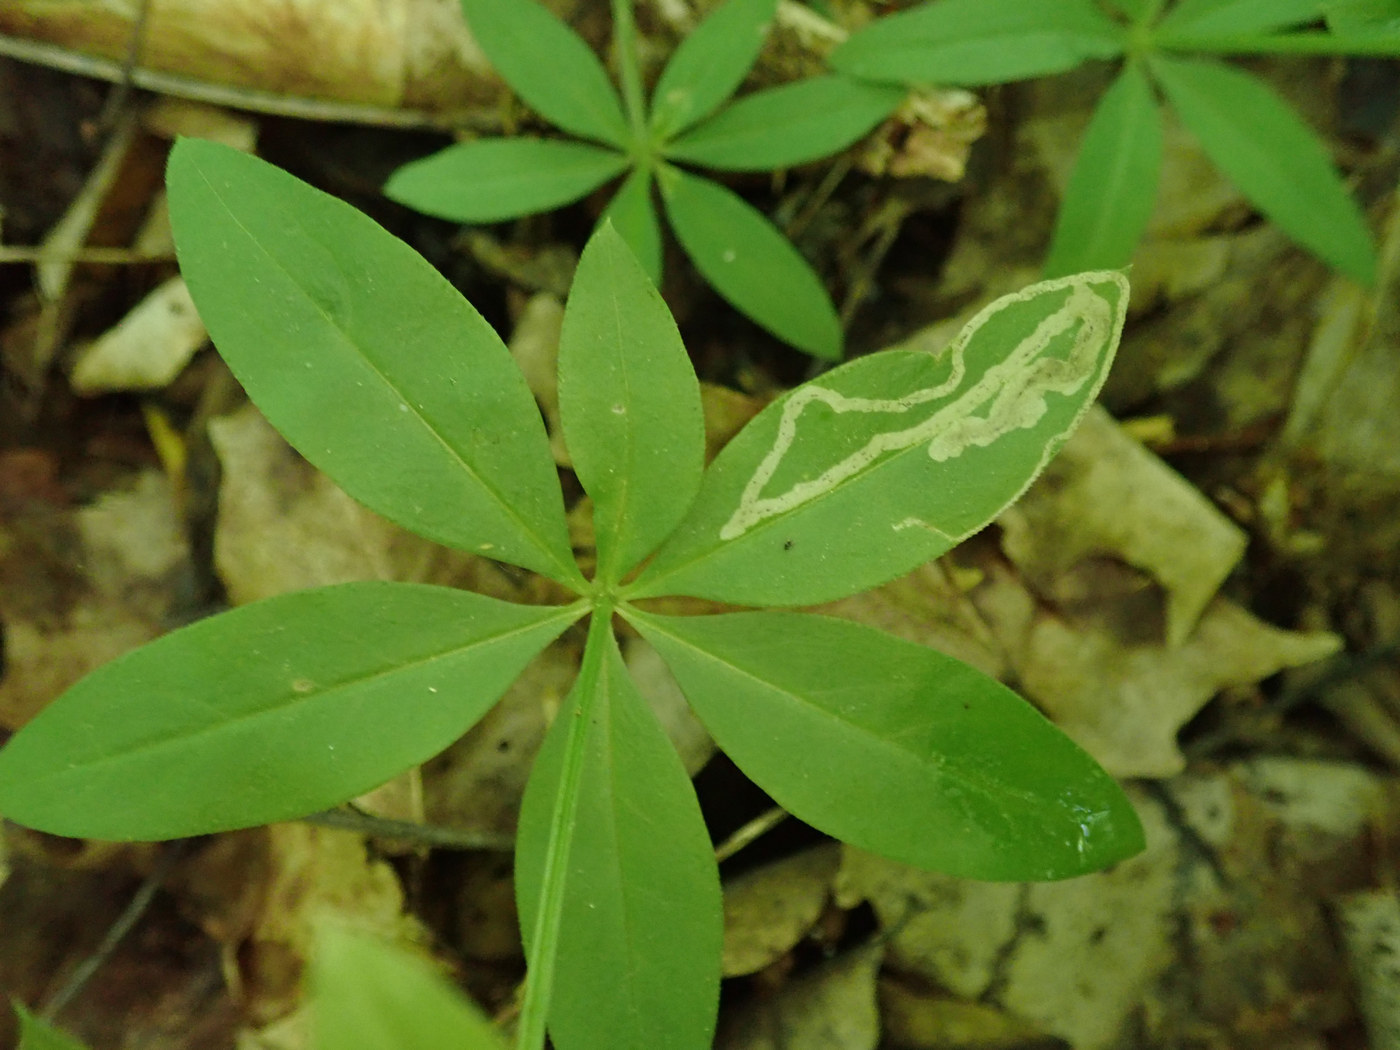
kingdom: Animalia
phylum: Arthropoda
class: Insecta
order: Diptera
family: Agromyzidae
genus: Liriomyza
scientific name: Liriomyza galiivora
